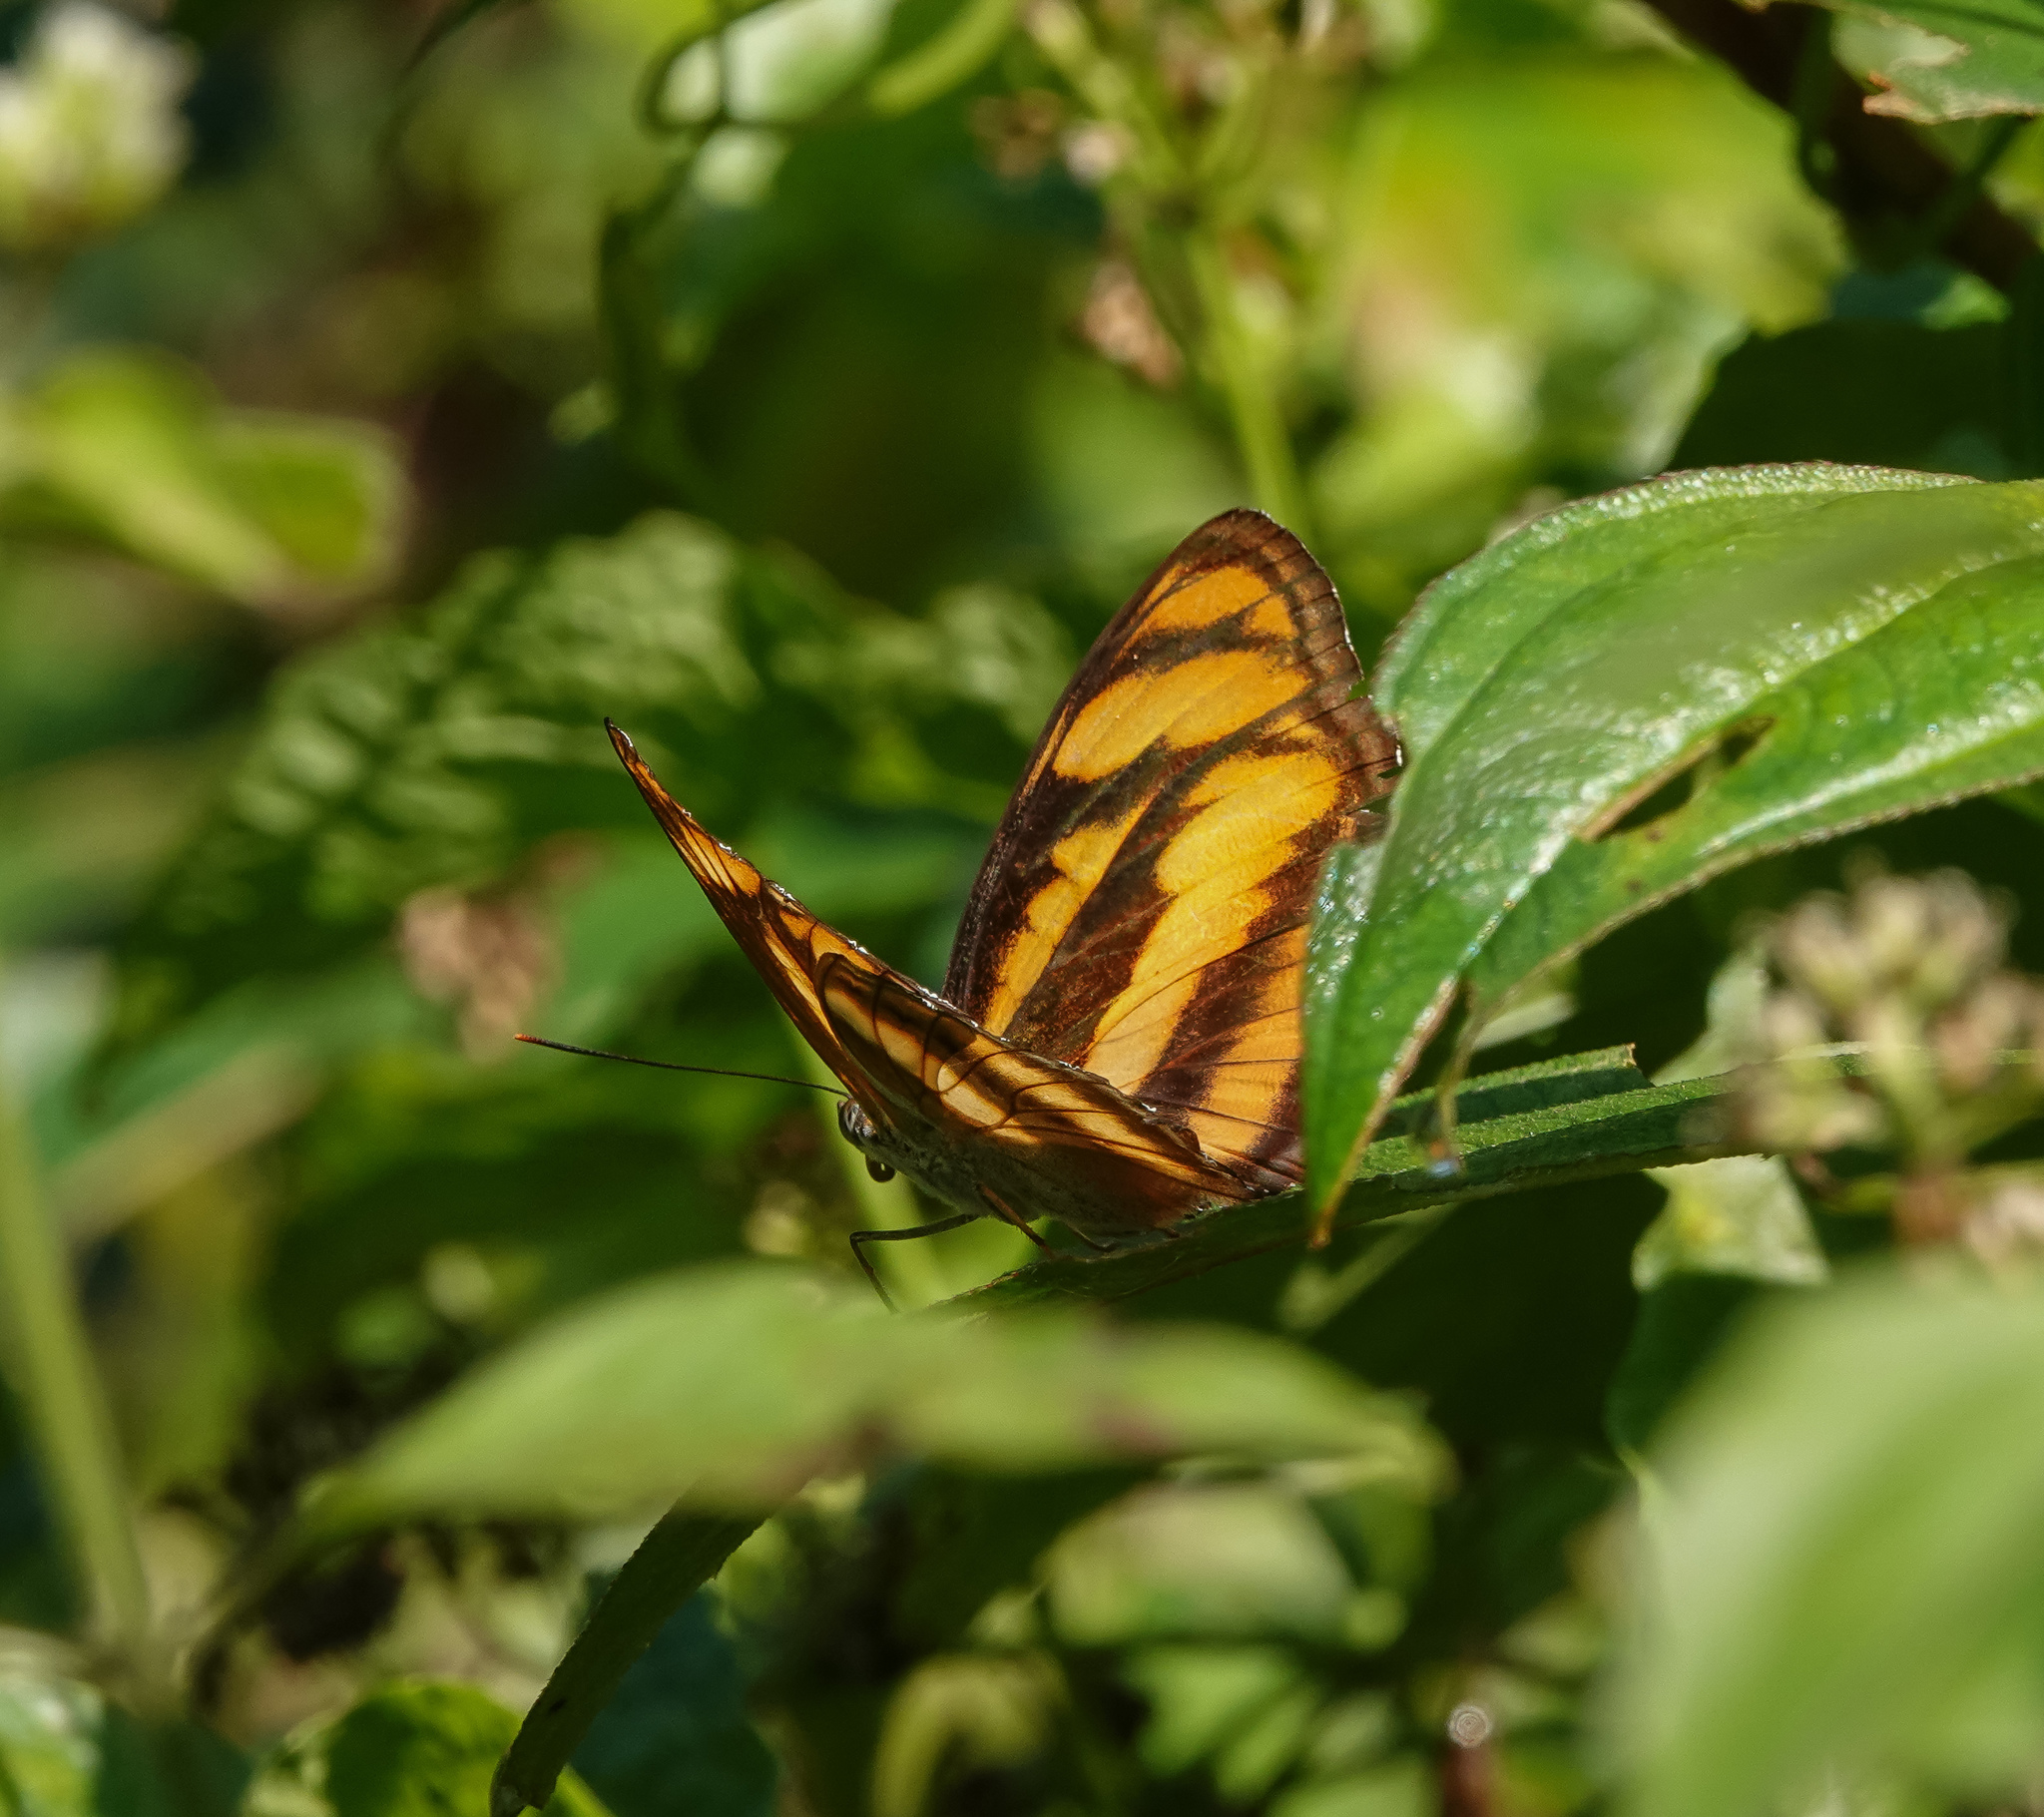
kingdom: Animalia
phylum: Arthropoda
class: Insecta
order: Lepidoptera
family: Nymphalidae
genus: Parathyma
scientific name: Parathyma nefte
